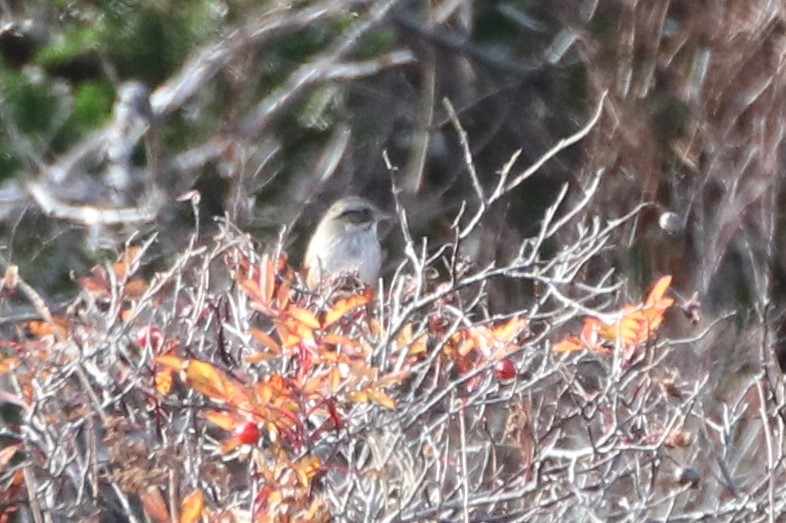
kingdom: Animalia
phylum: Chordata
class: Aves
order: Passeriformes
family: Passerellidae
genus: Melospiza
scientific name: Melospiza georgiana
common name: Swamp sparrow
